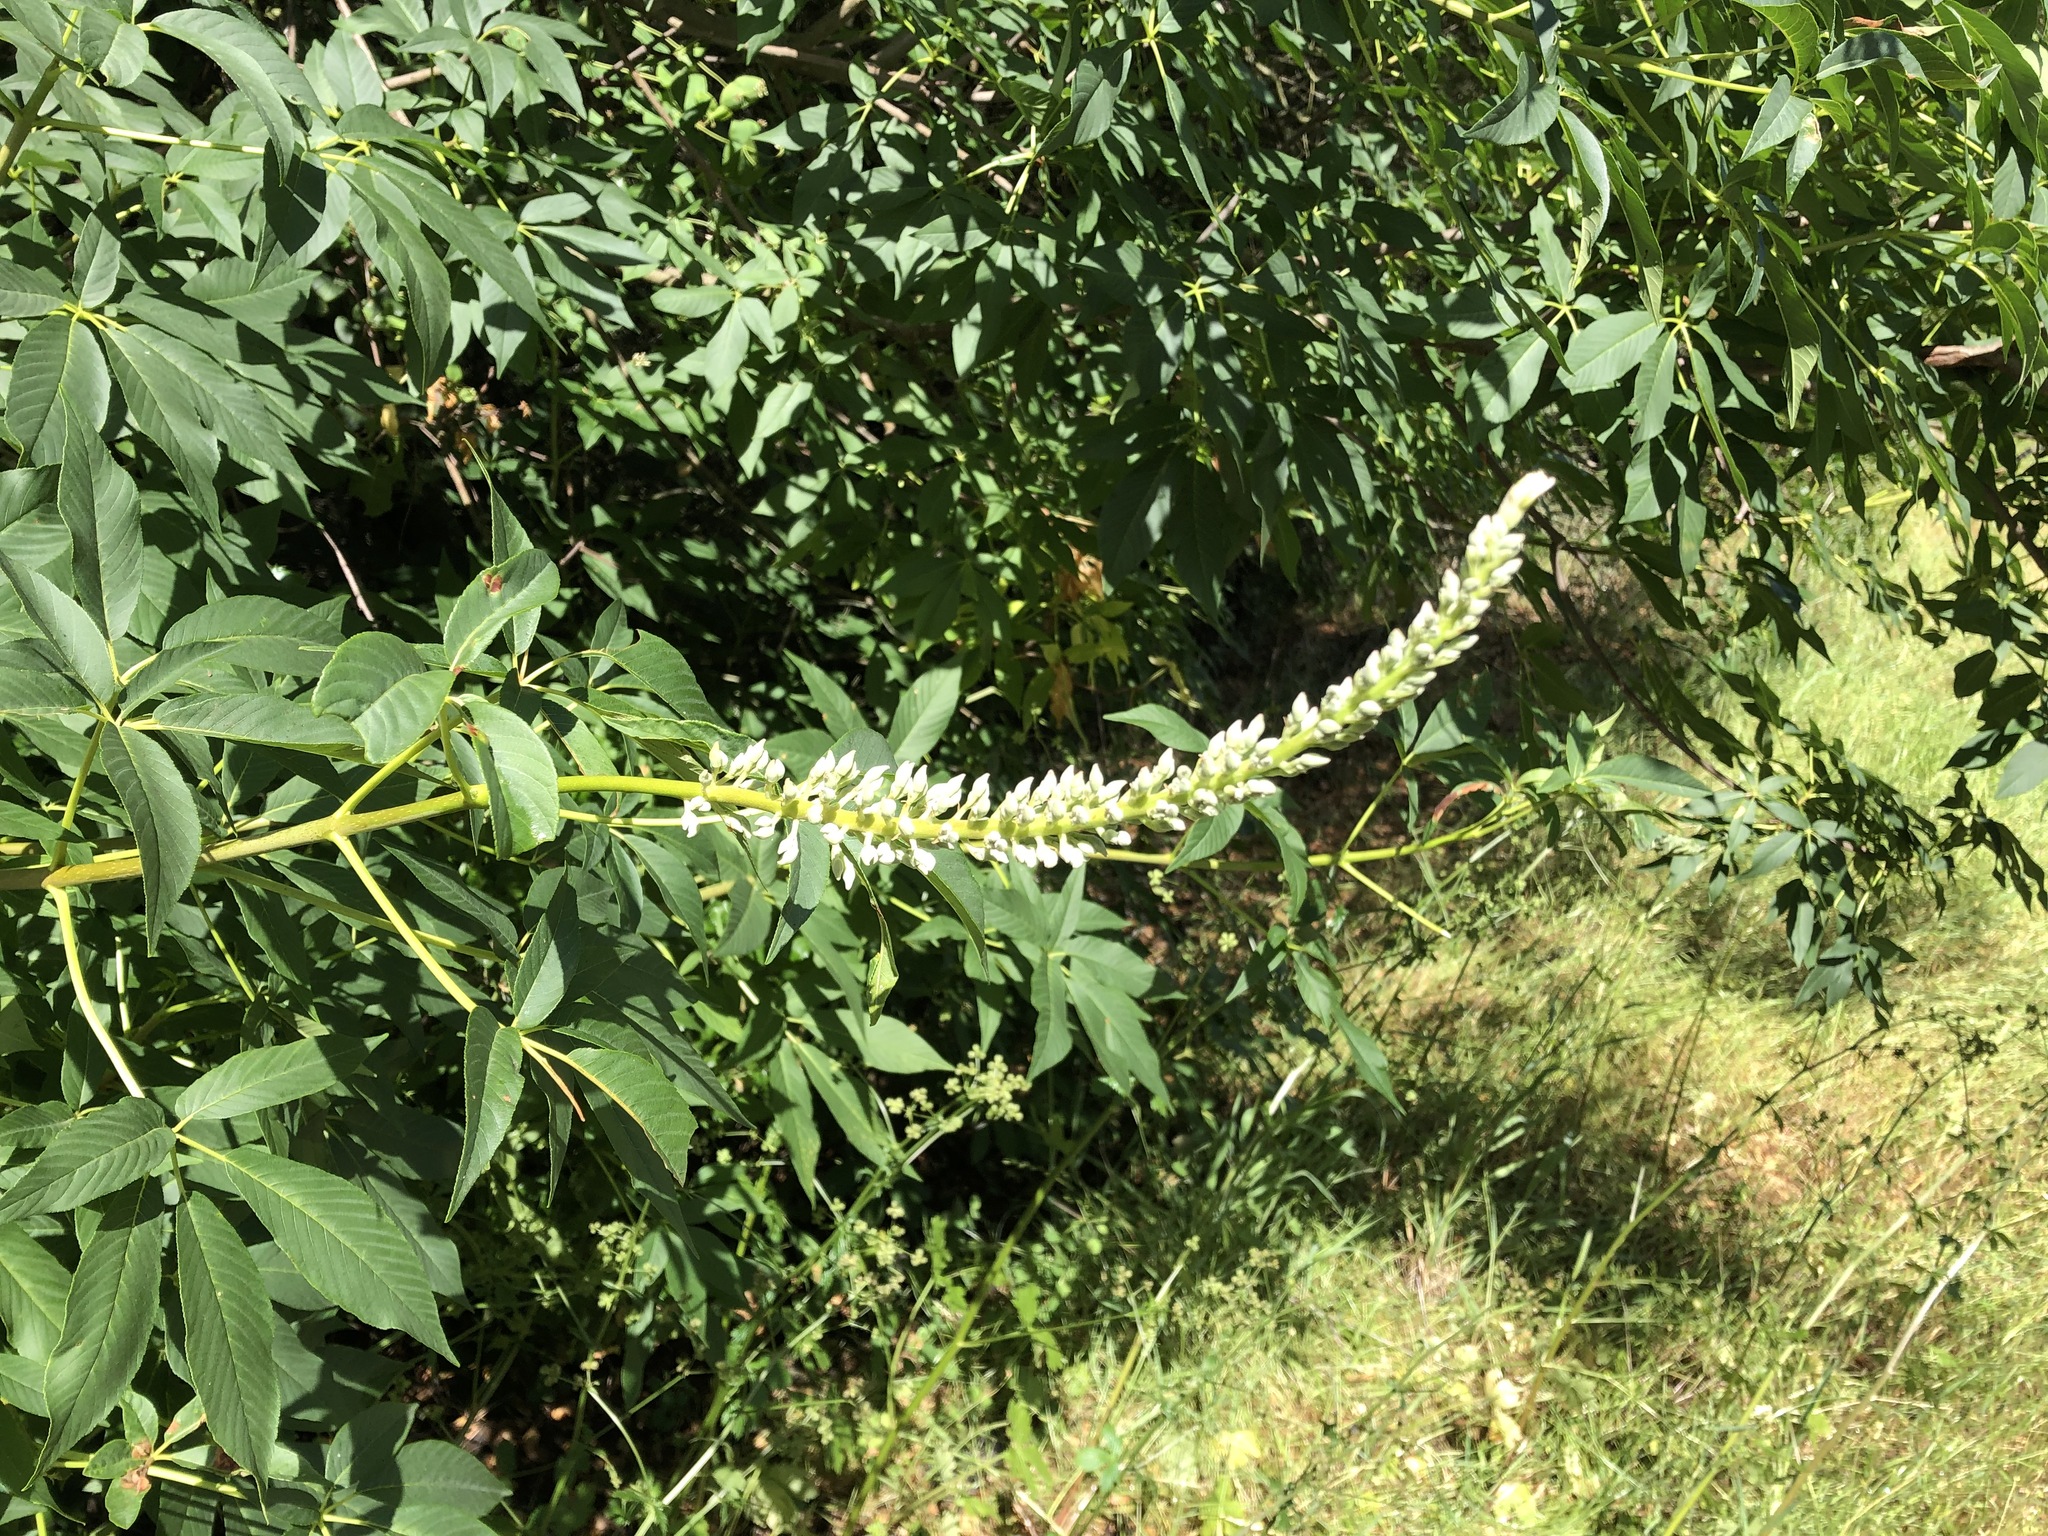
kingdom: Plantae
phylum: Tracheophyta
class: Magnoliopsida
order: Sapindales
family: Sapindaceae
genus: Aesculus
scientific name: Aesculus californica
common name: California buckeye
